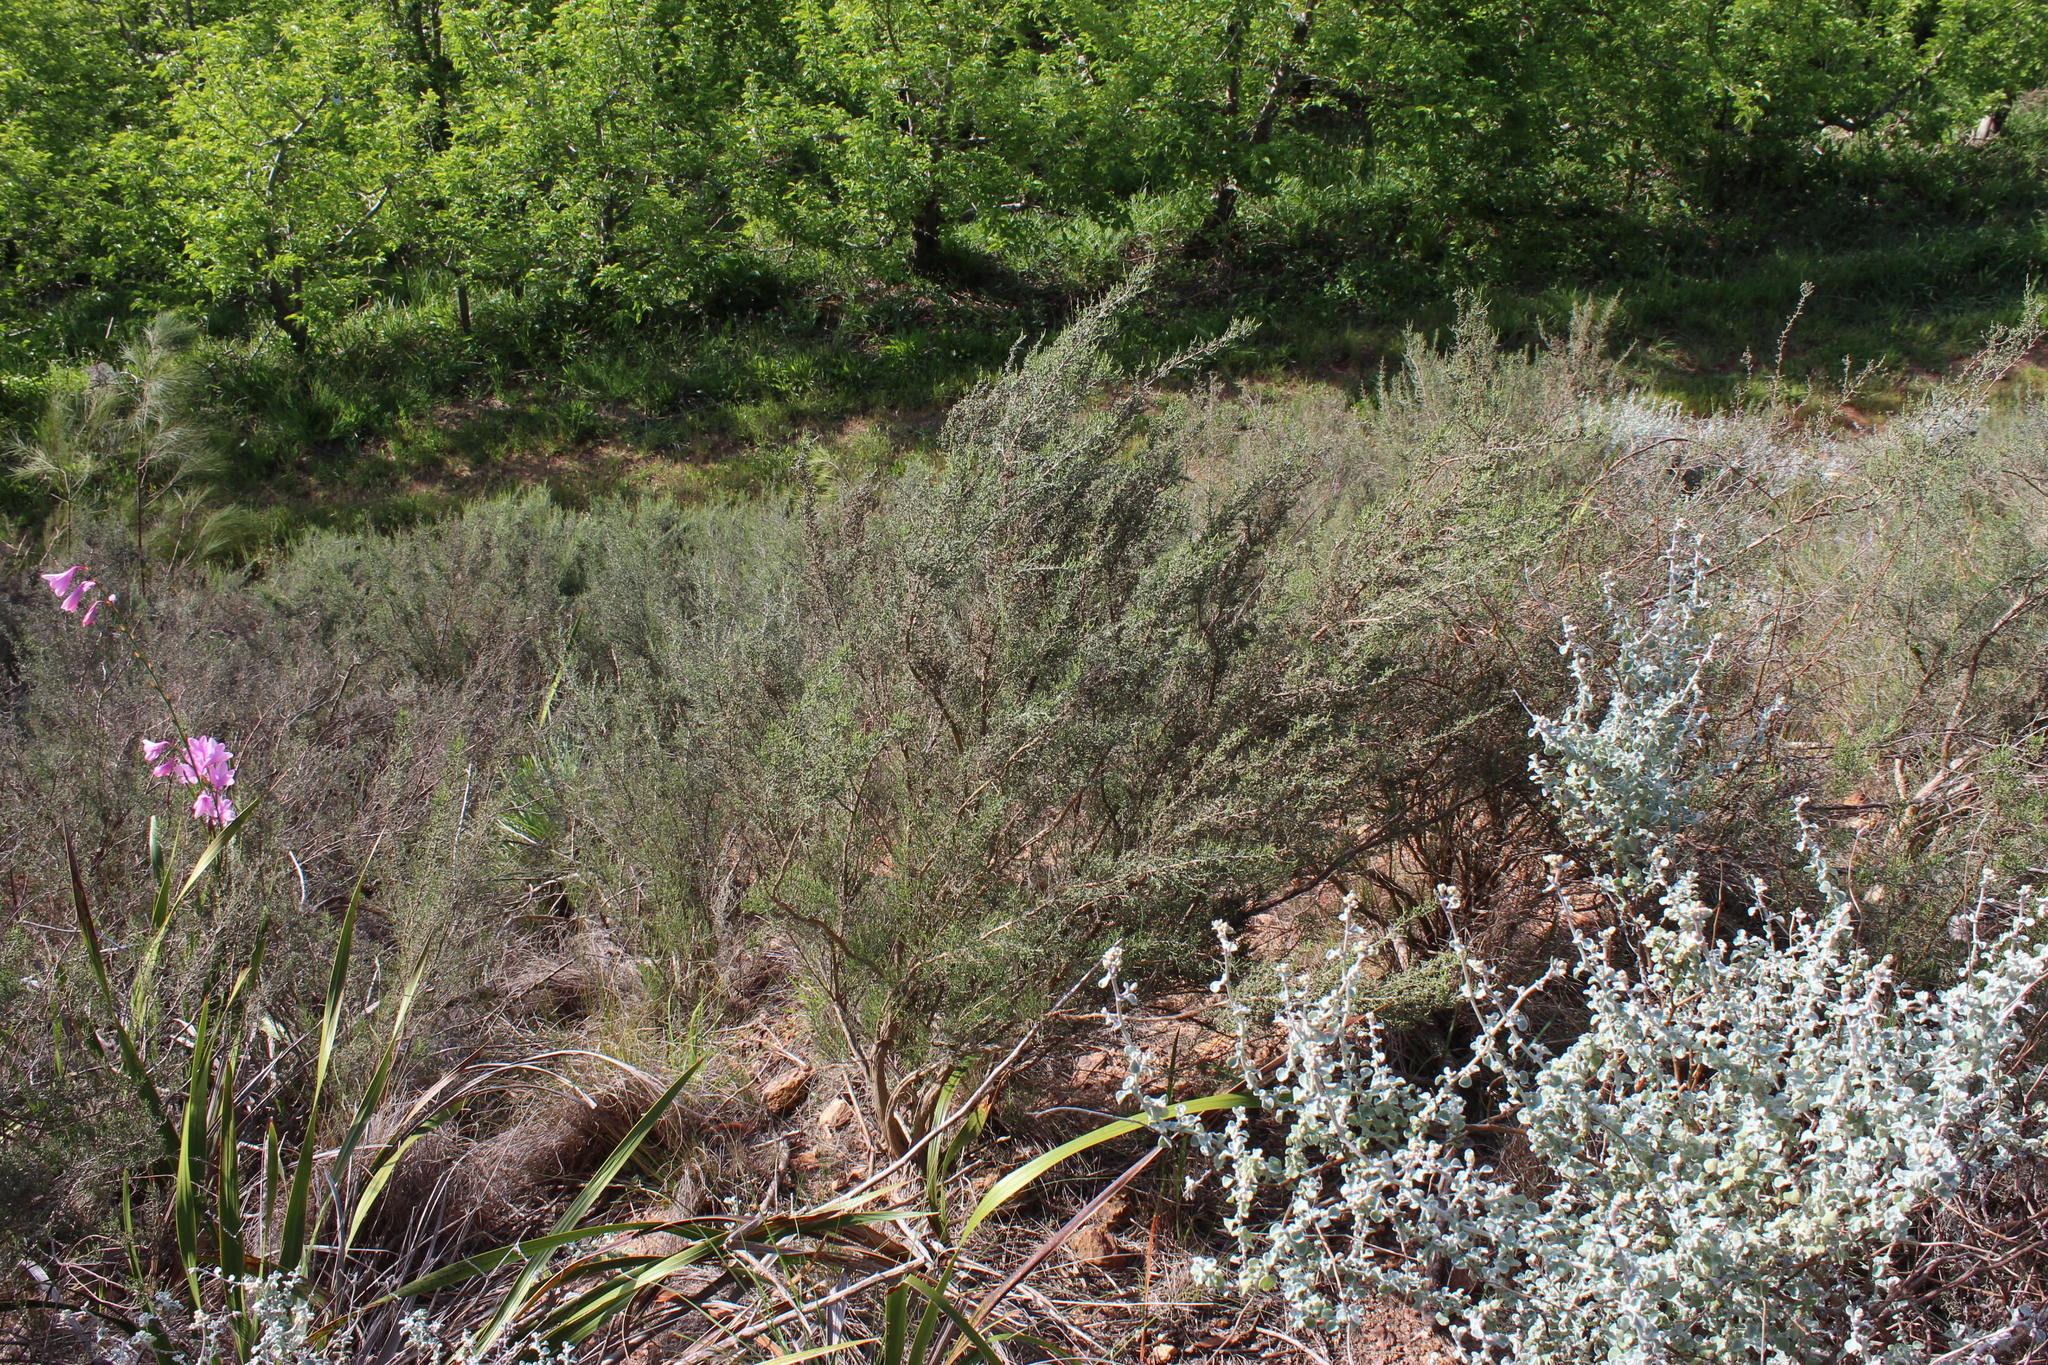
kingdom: Plantae
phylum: Tracheophyta
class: Magnoliopsida
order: Asterales
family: Asteraceae
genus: Dicerothamnus
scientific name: Dicerothamnus rhinocerotis
